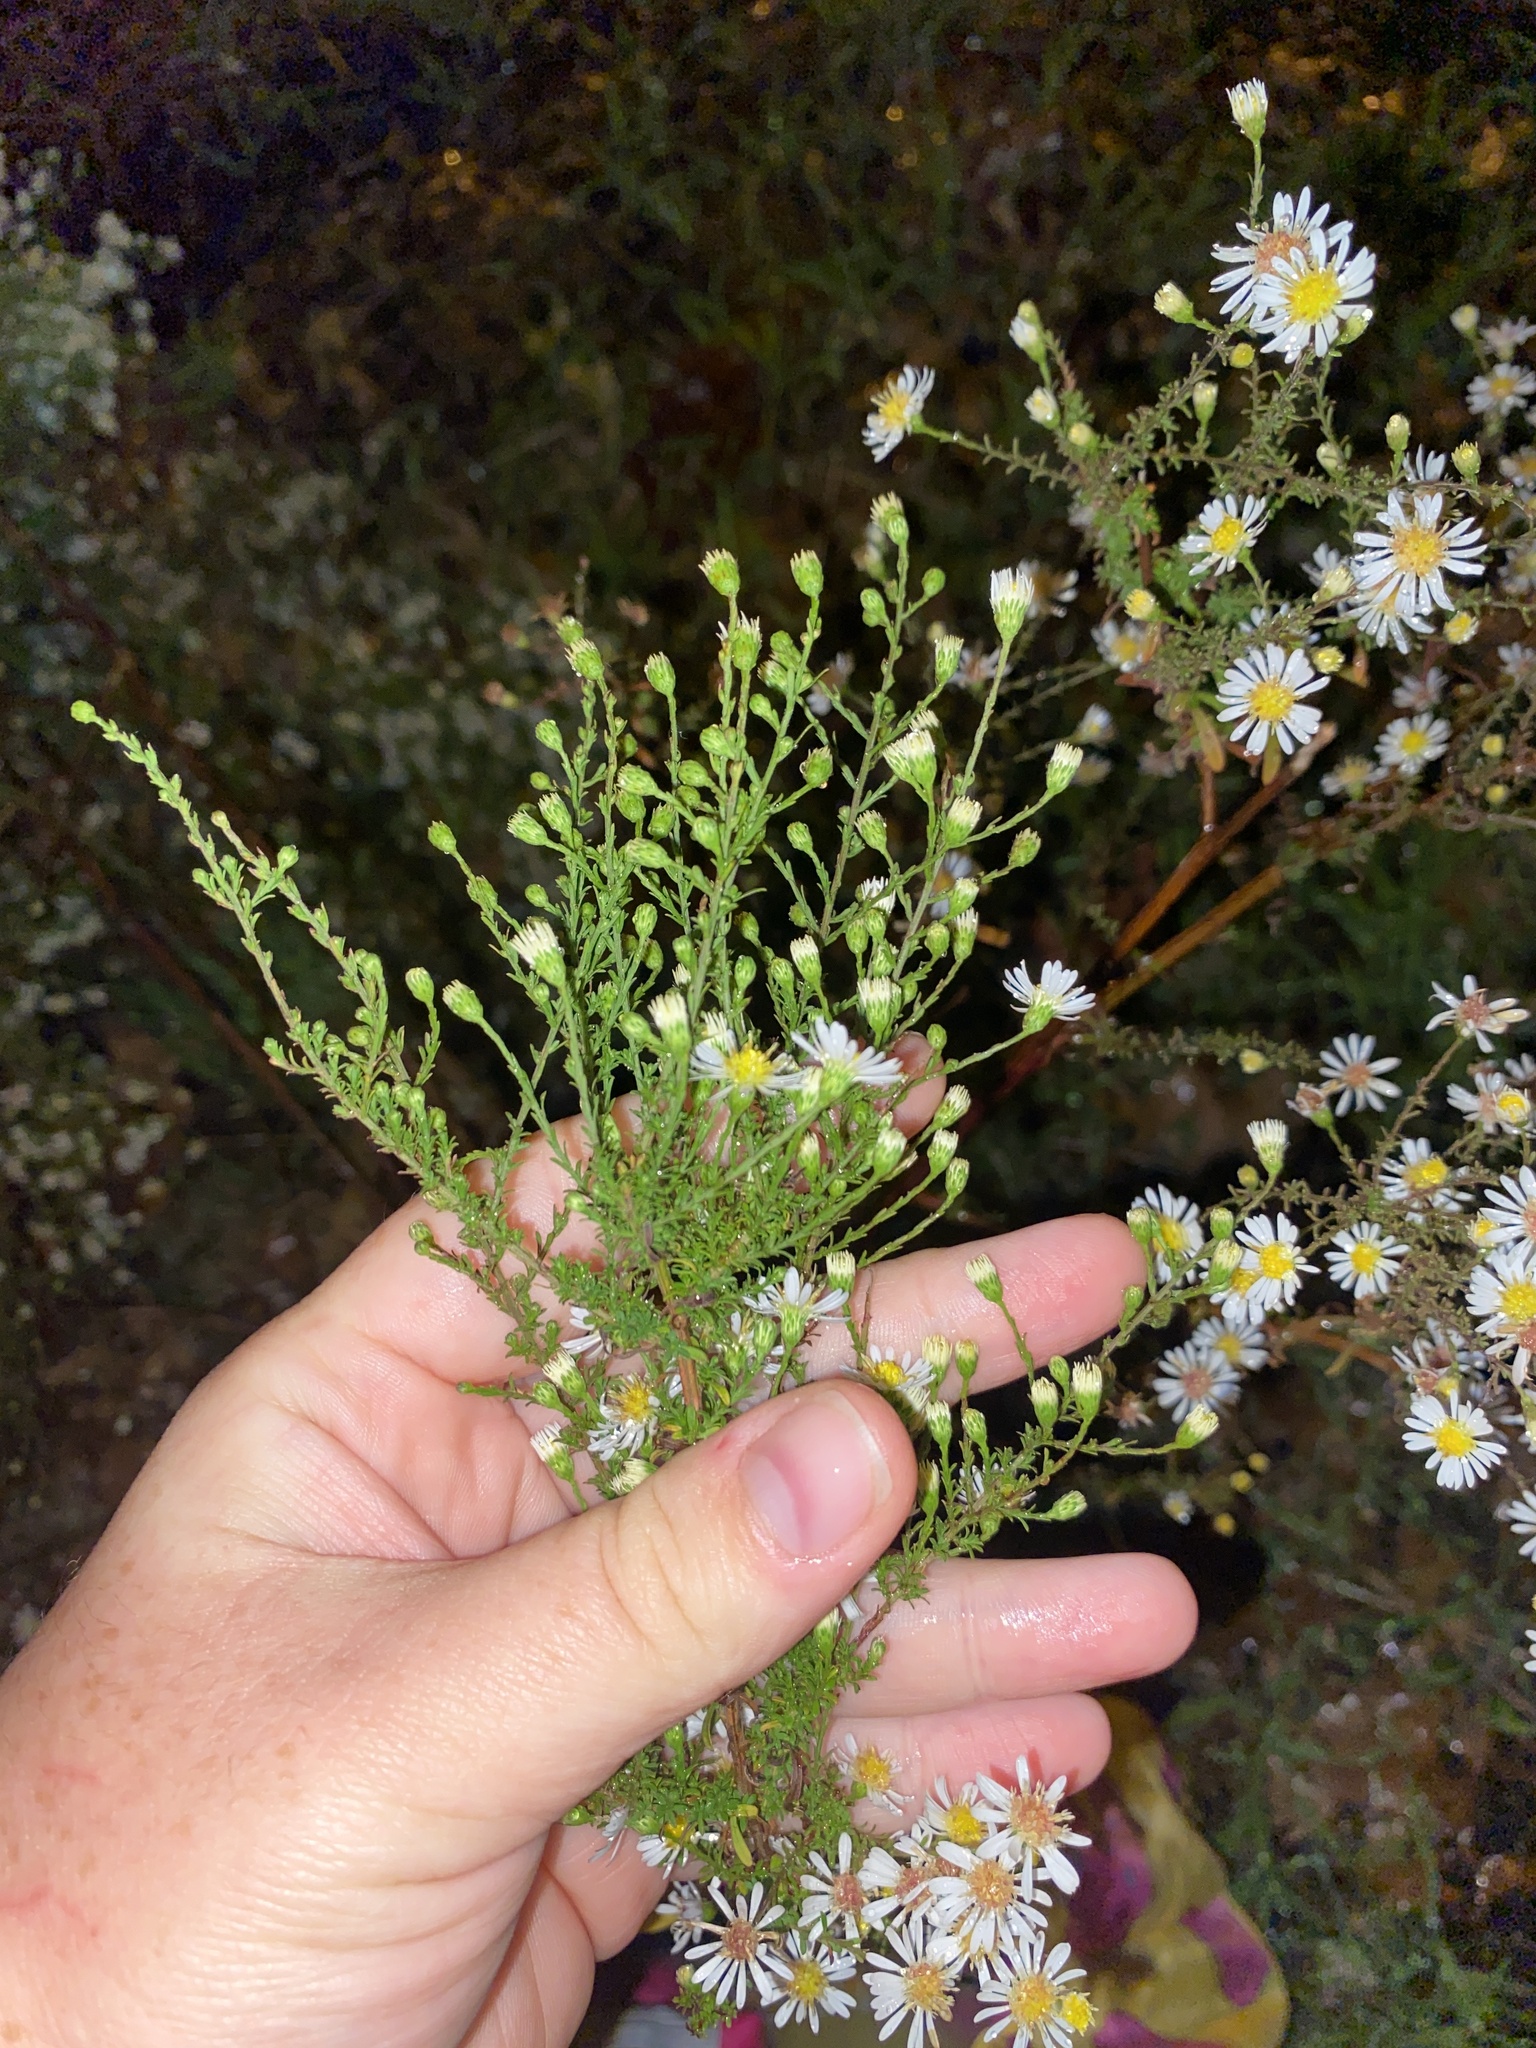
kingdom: Plantae
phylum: Tracheophyta
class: Magnoliopsida
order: Asterales
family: Asteraceae
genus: Symphyotrichum
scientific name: Symphyotrichum dumosum
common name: Bushy aster
